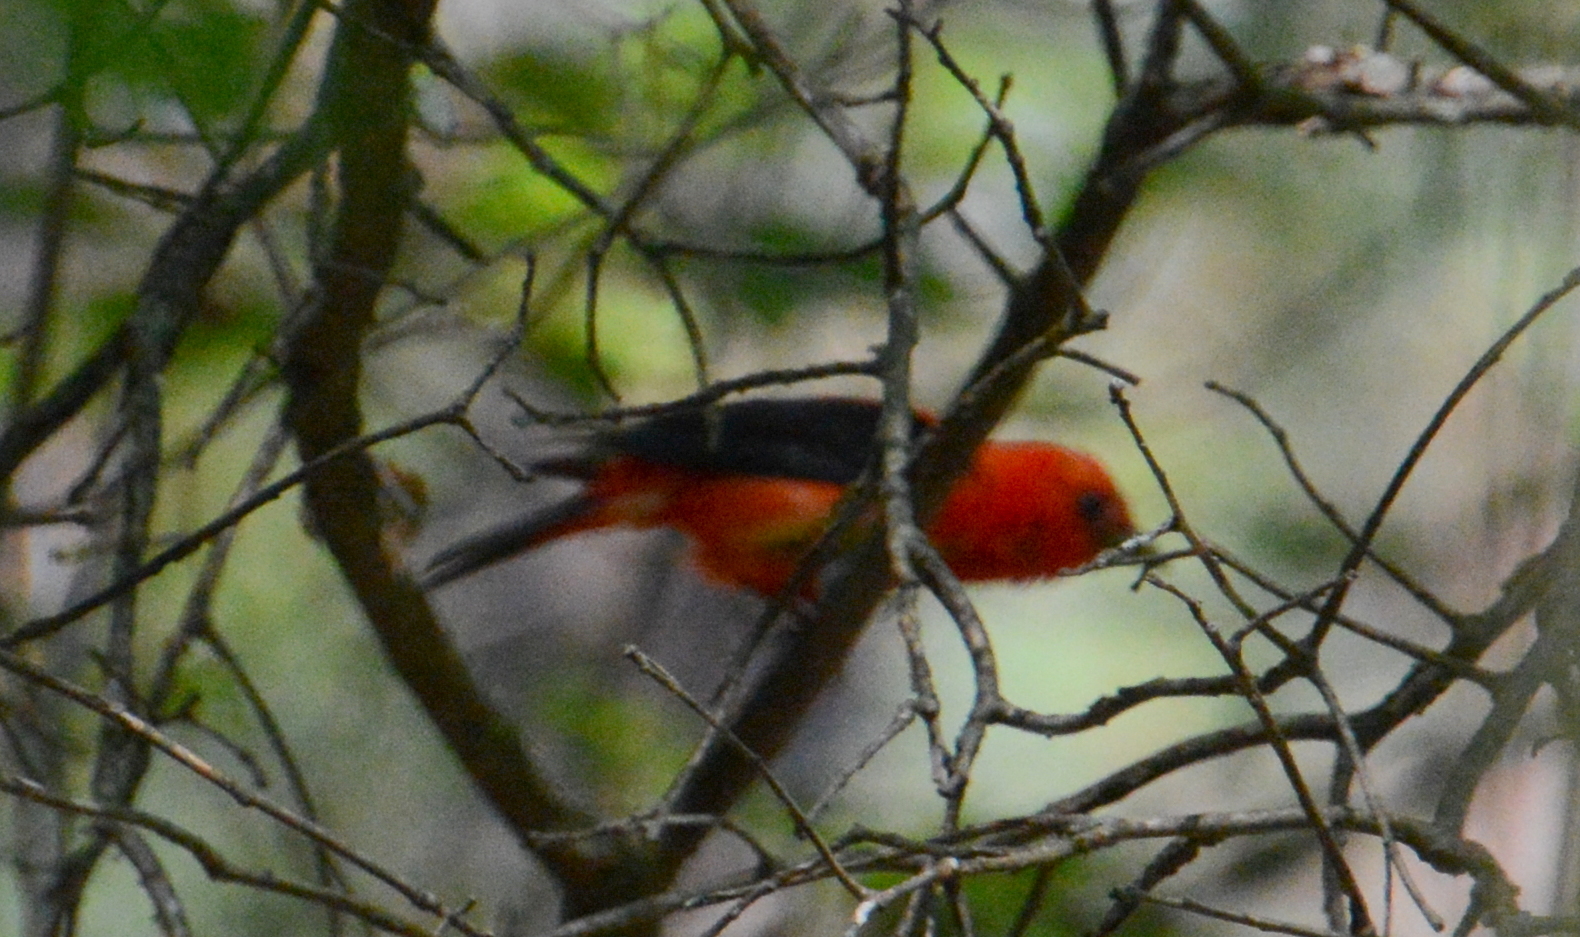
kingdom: Animalia
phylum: Chordata
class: Aves
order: Passeriformes
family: Cardinalidae
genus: Piranga
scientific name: Piranga olivacea
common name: Scarlet tanager
